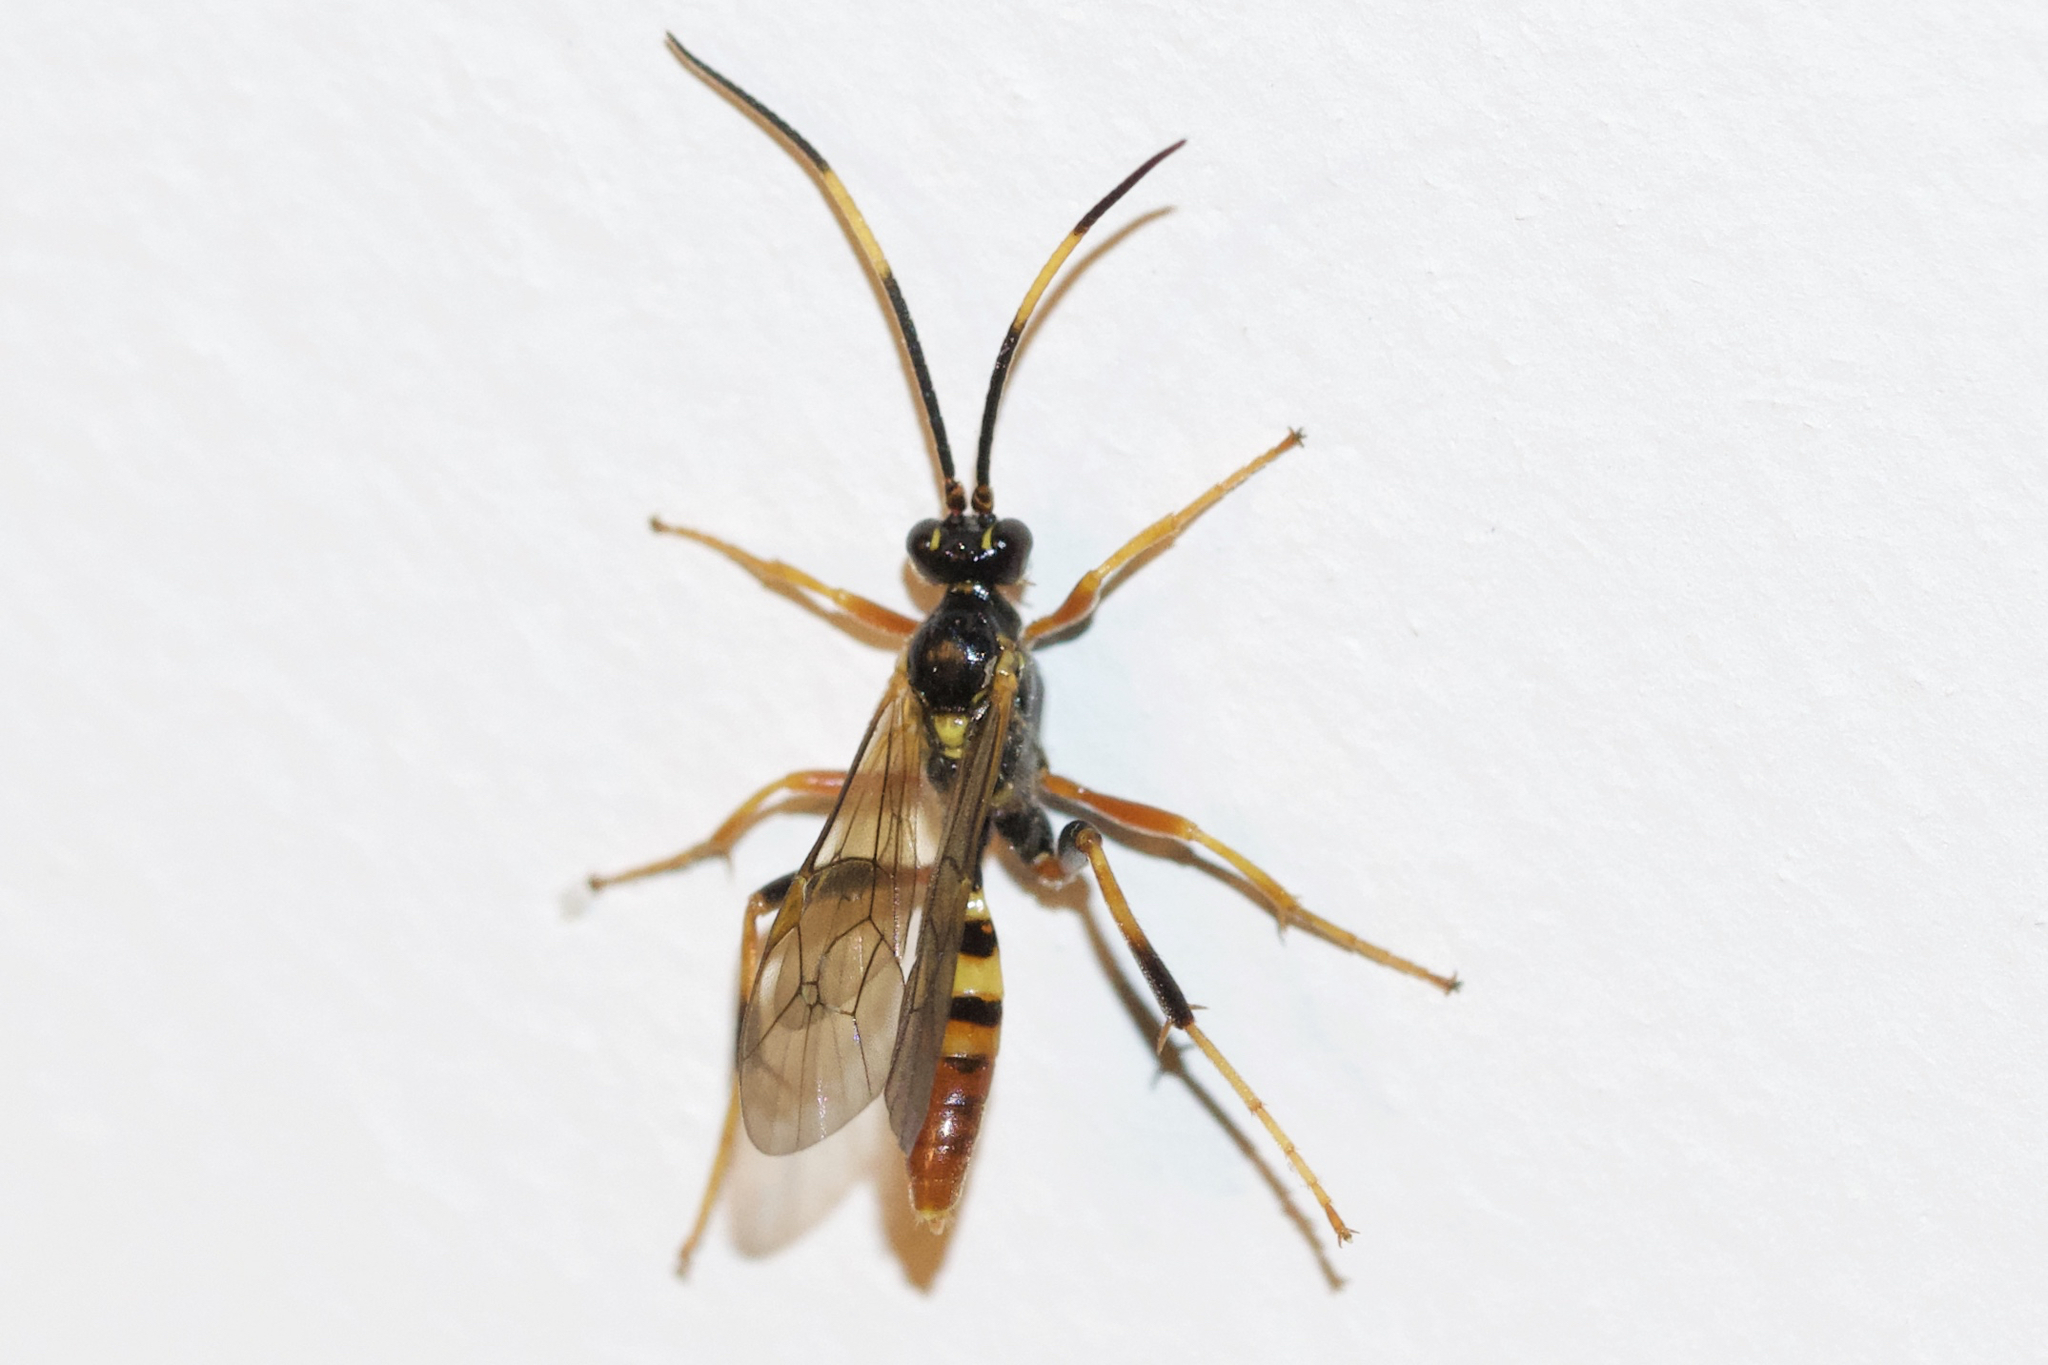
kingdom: Animalia
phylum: Arthropoda
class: Insecta
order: Hymenoptera
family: Ichneumonidae
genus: Polytribax
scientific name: Polytribax contiguus
